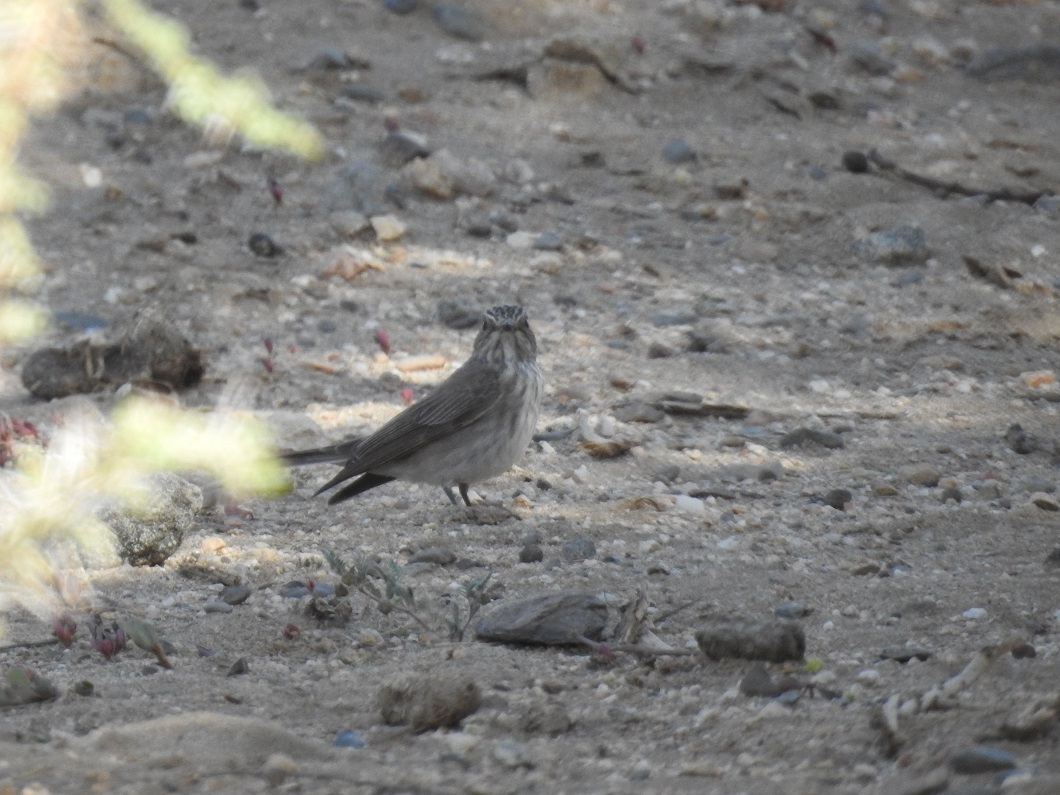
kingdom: Animalia
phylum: Chordata
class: Aves
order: Passeriformes
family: Muscicapidae
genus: Muscicapa
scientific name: Muscicapa striata
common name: Spotted flycatcher
